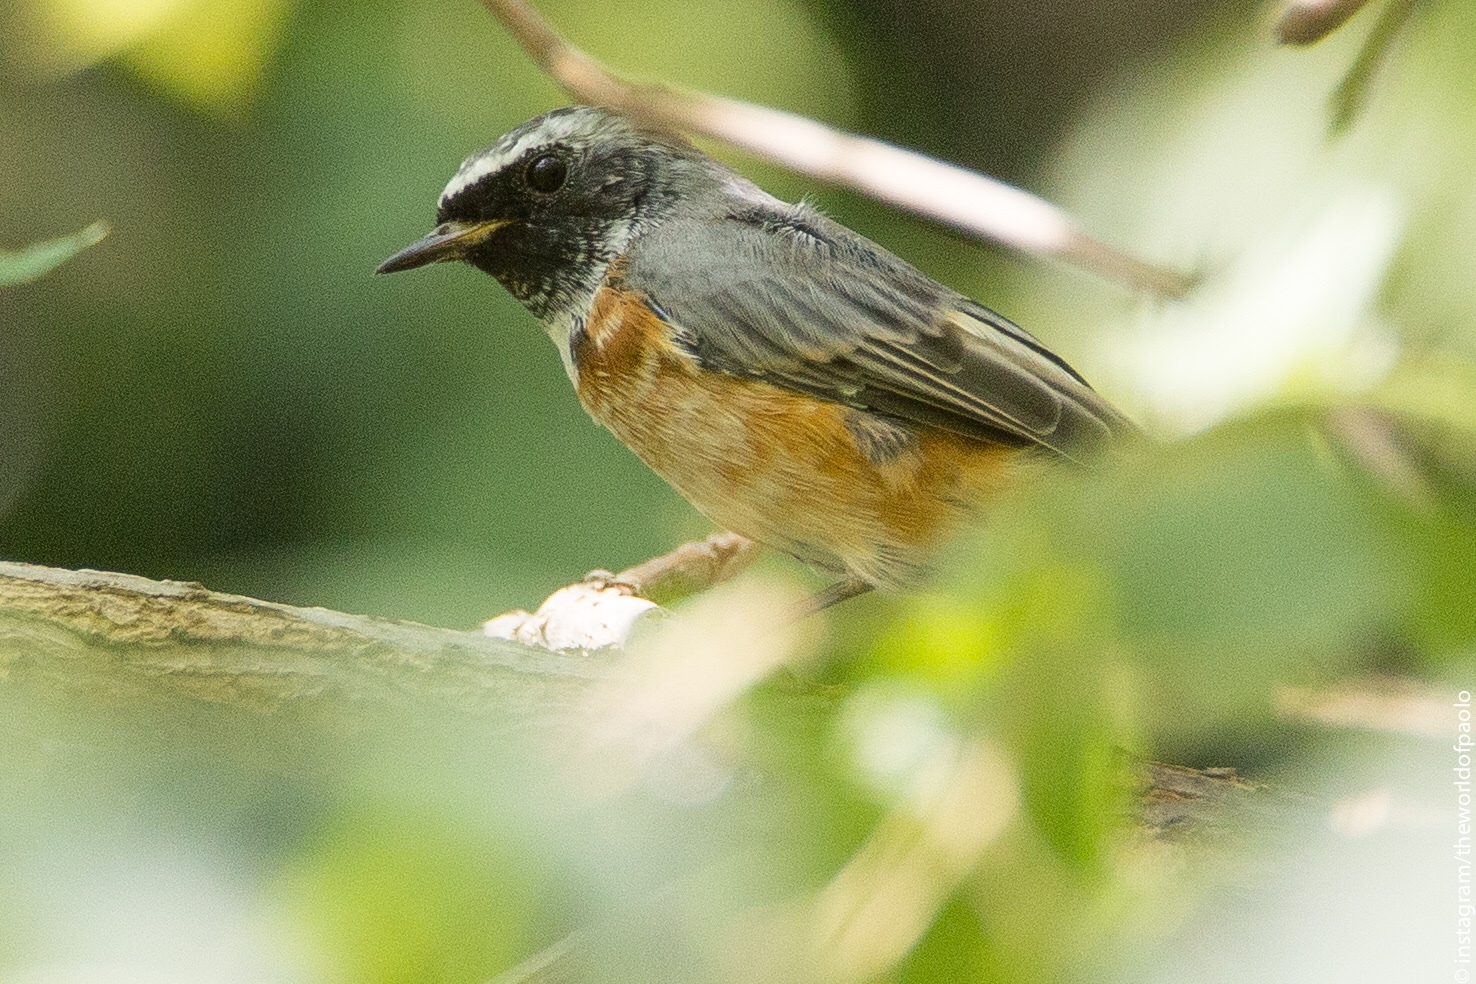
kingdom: Animalia
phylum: Chordata
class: Aves
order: Passeriformes
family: Muscicapidae
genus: Phoenicurus
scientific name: Phoenicurus phoenicurus
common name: Common redstart
